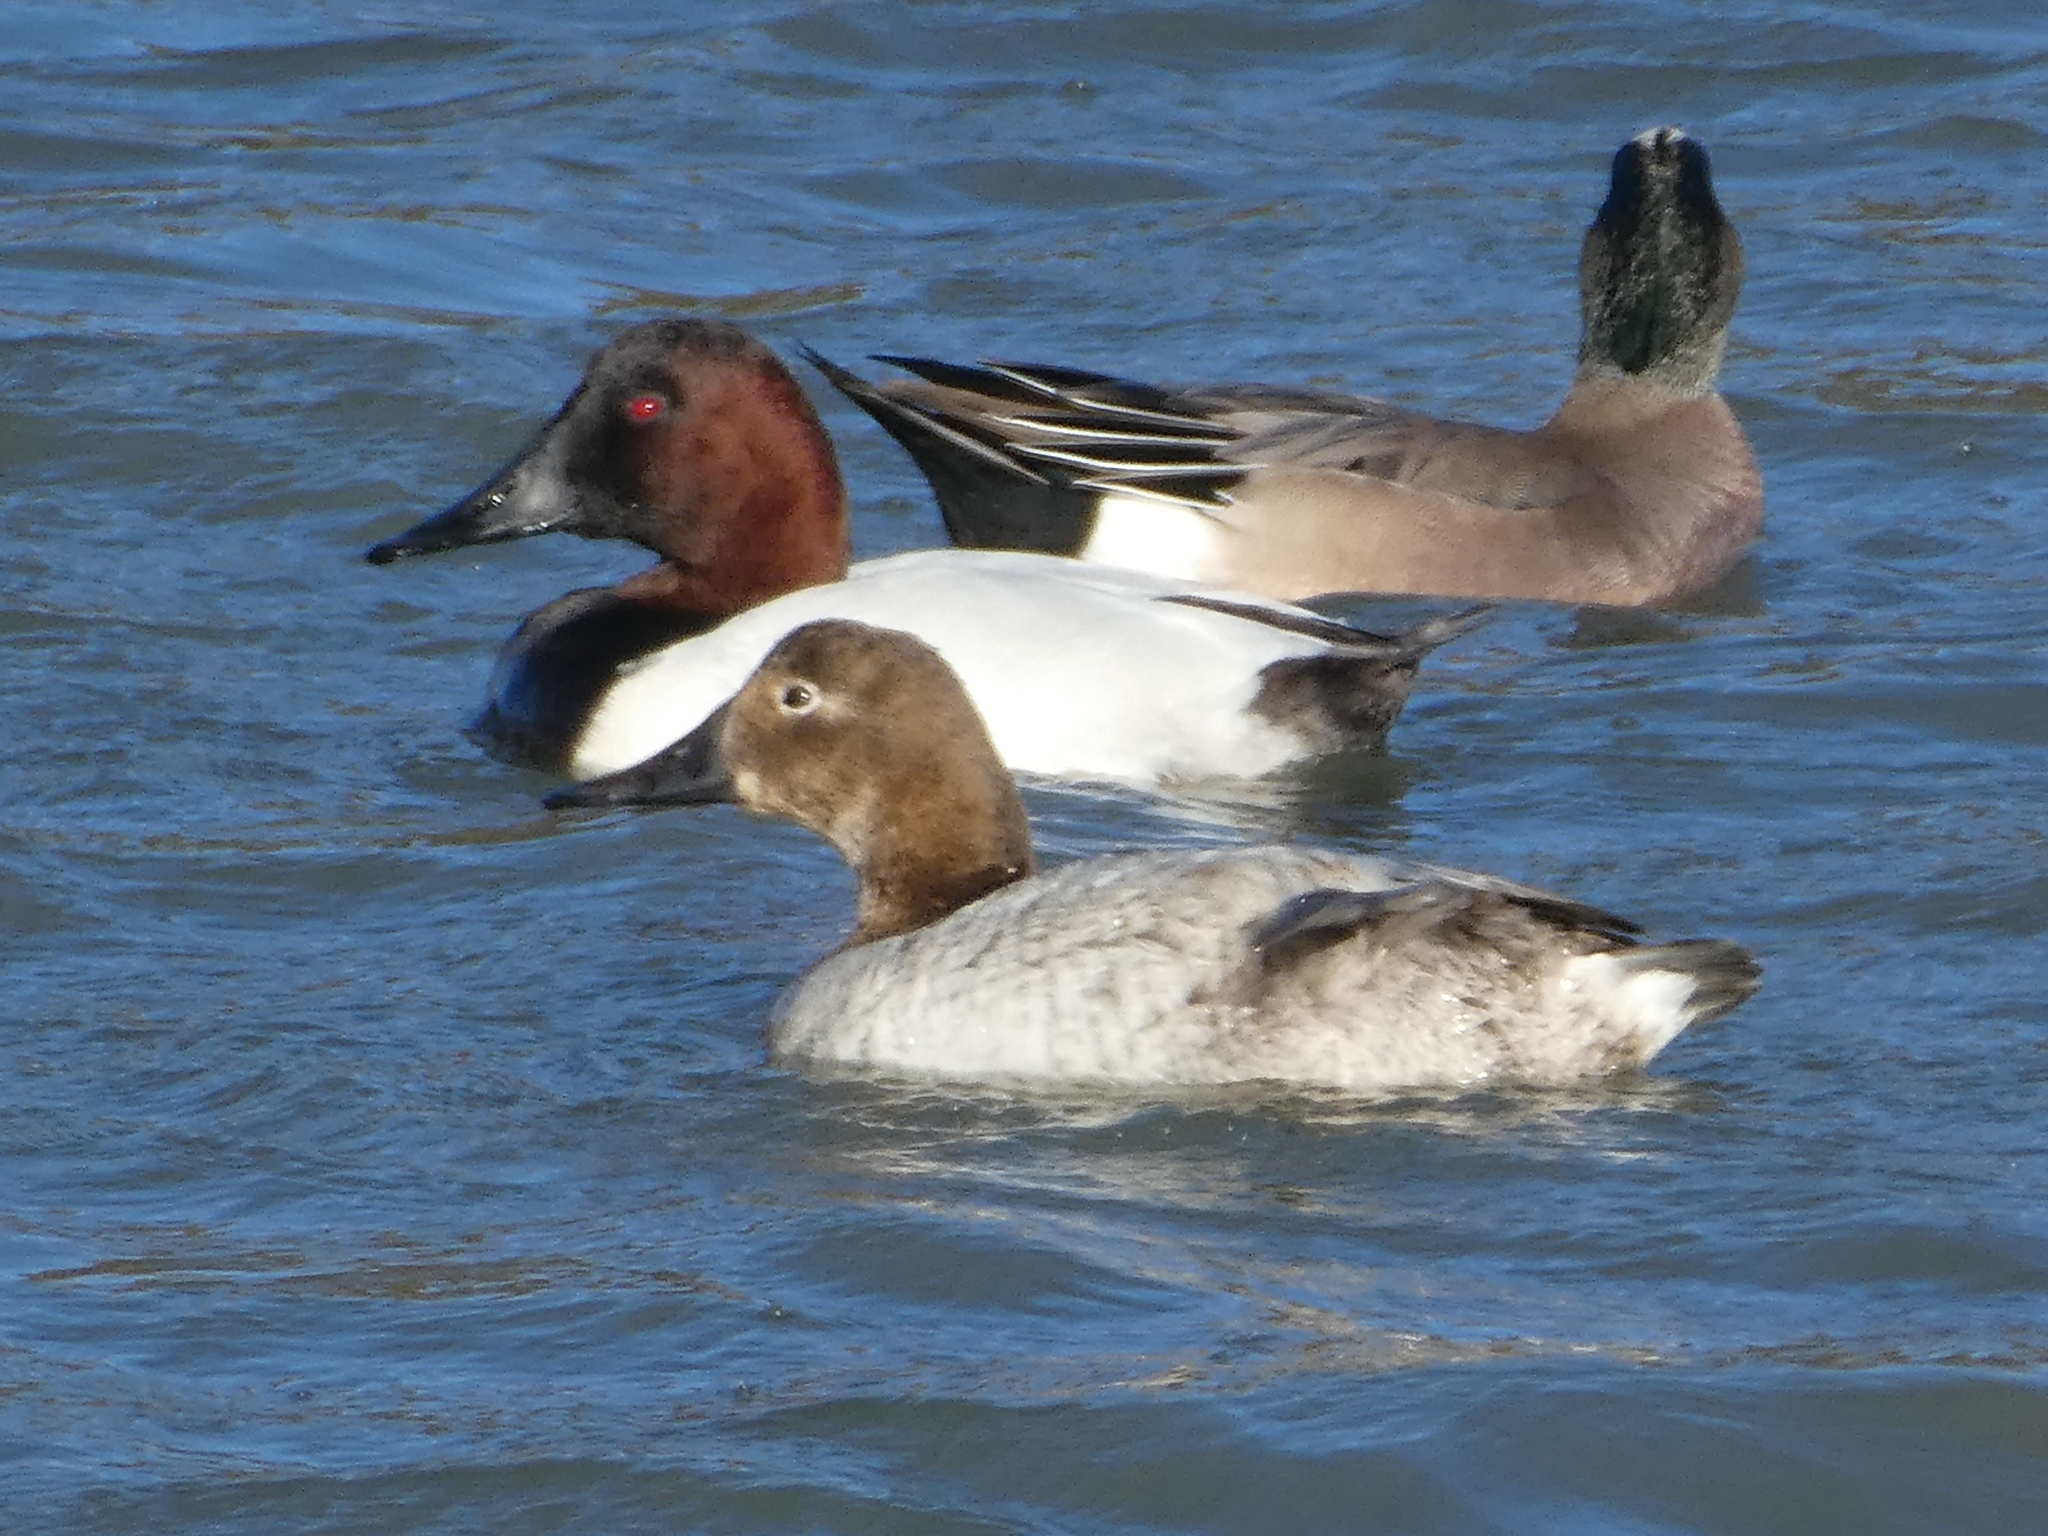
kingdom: Animalia
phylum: Chordata
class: Aves
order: Anseriformes
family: Anatidae
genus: Aythya
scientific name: Aythya valisineria
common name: Canvasback
